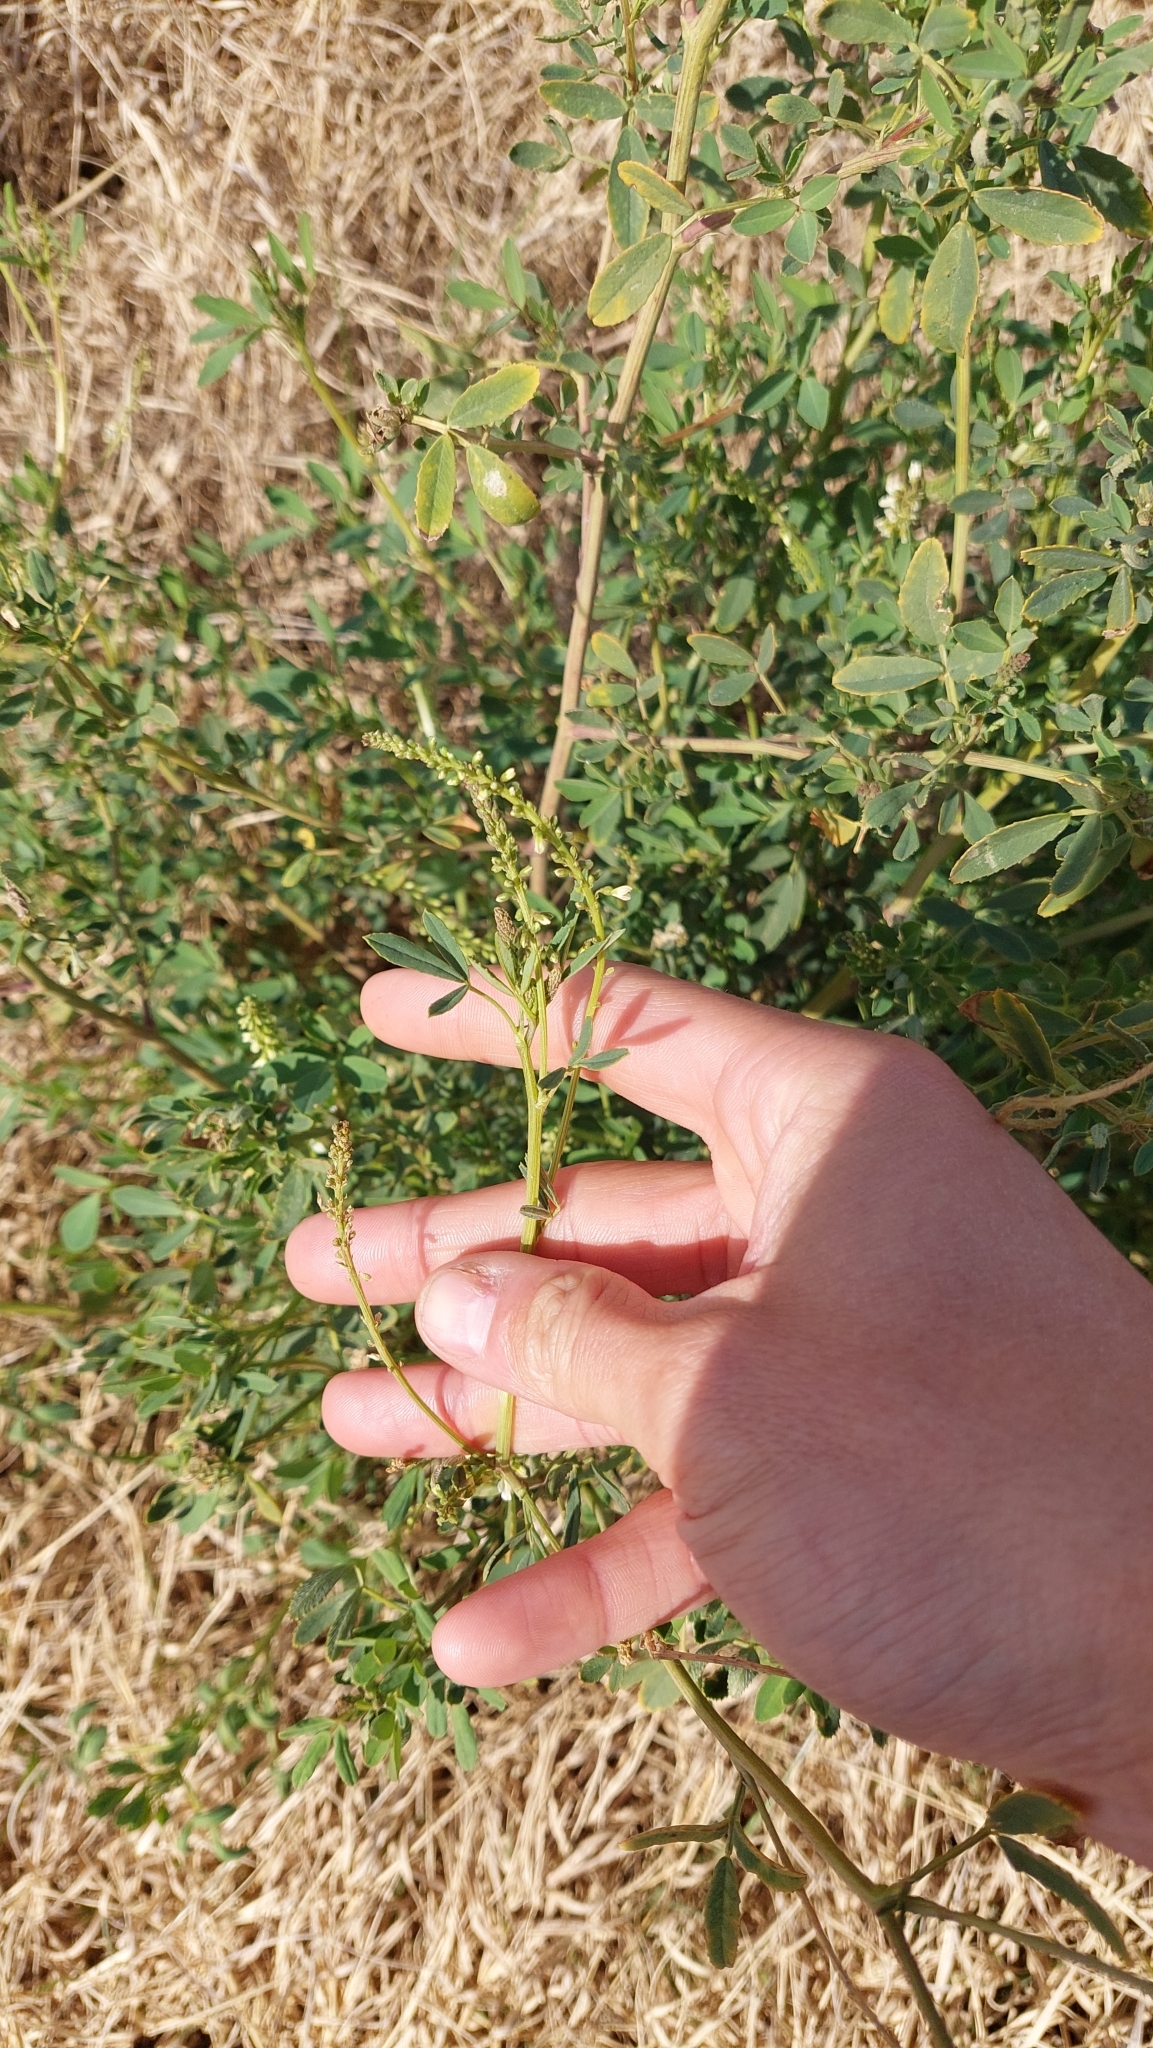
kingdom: Plantae
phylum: Tracheophyta
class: Magnoliopsida
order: Fabales
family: Fabaceae
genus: Melilotus
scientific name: Melilotus albus
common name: White melilot
